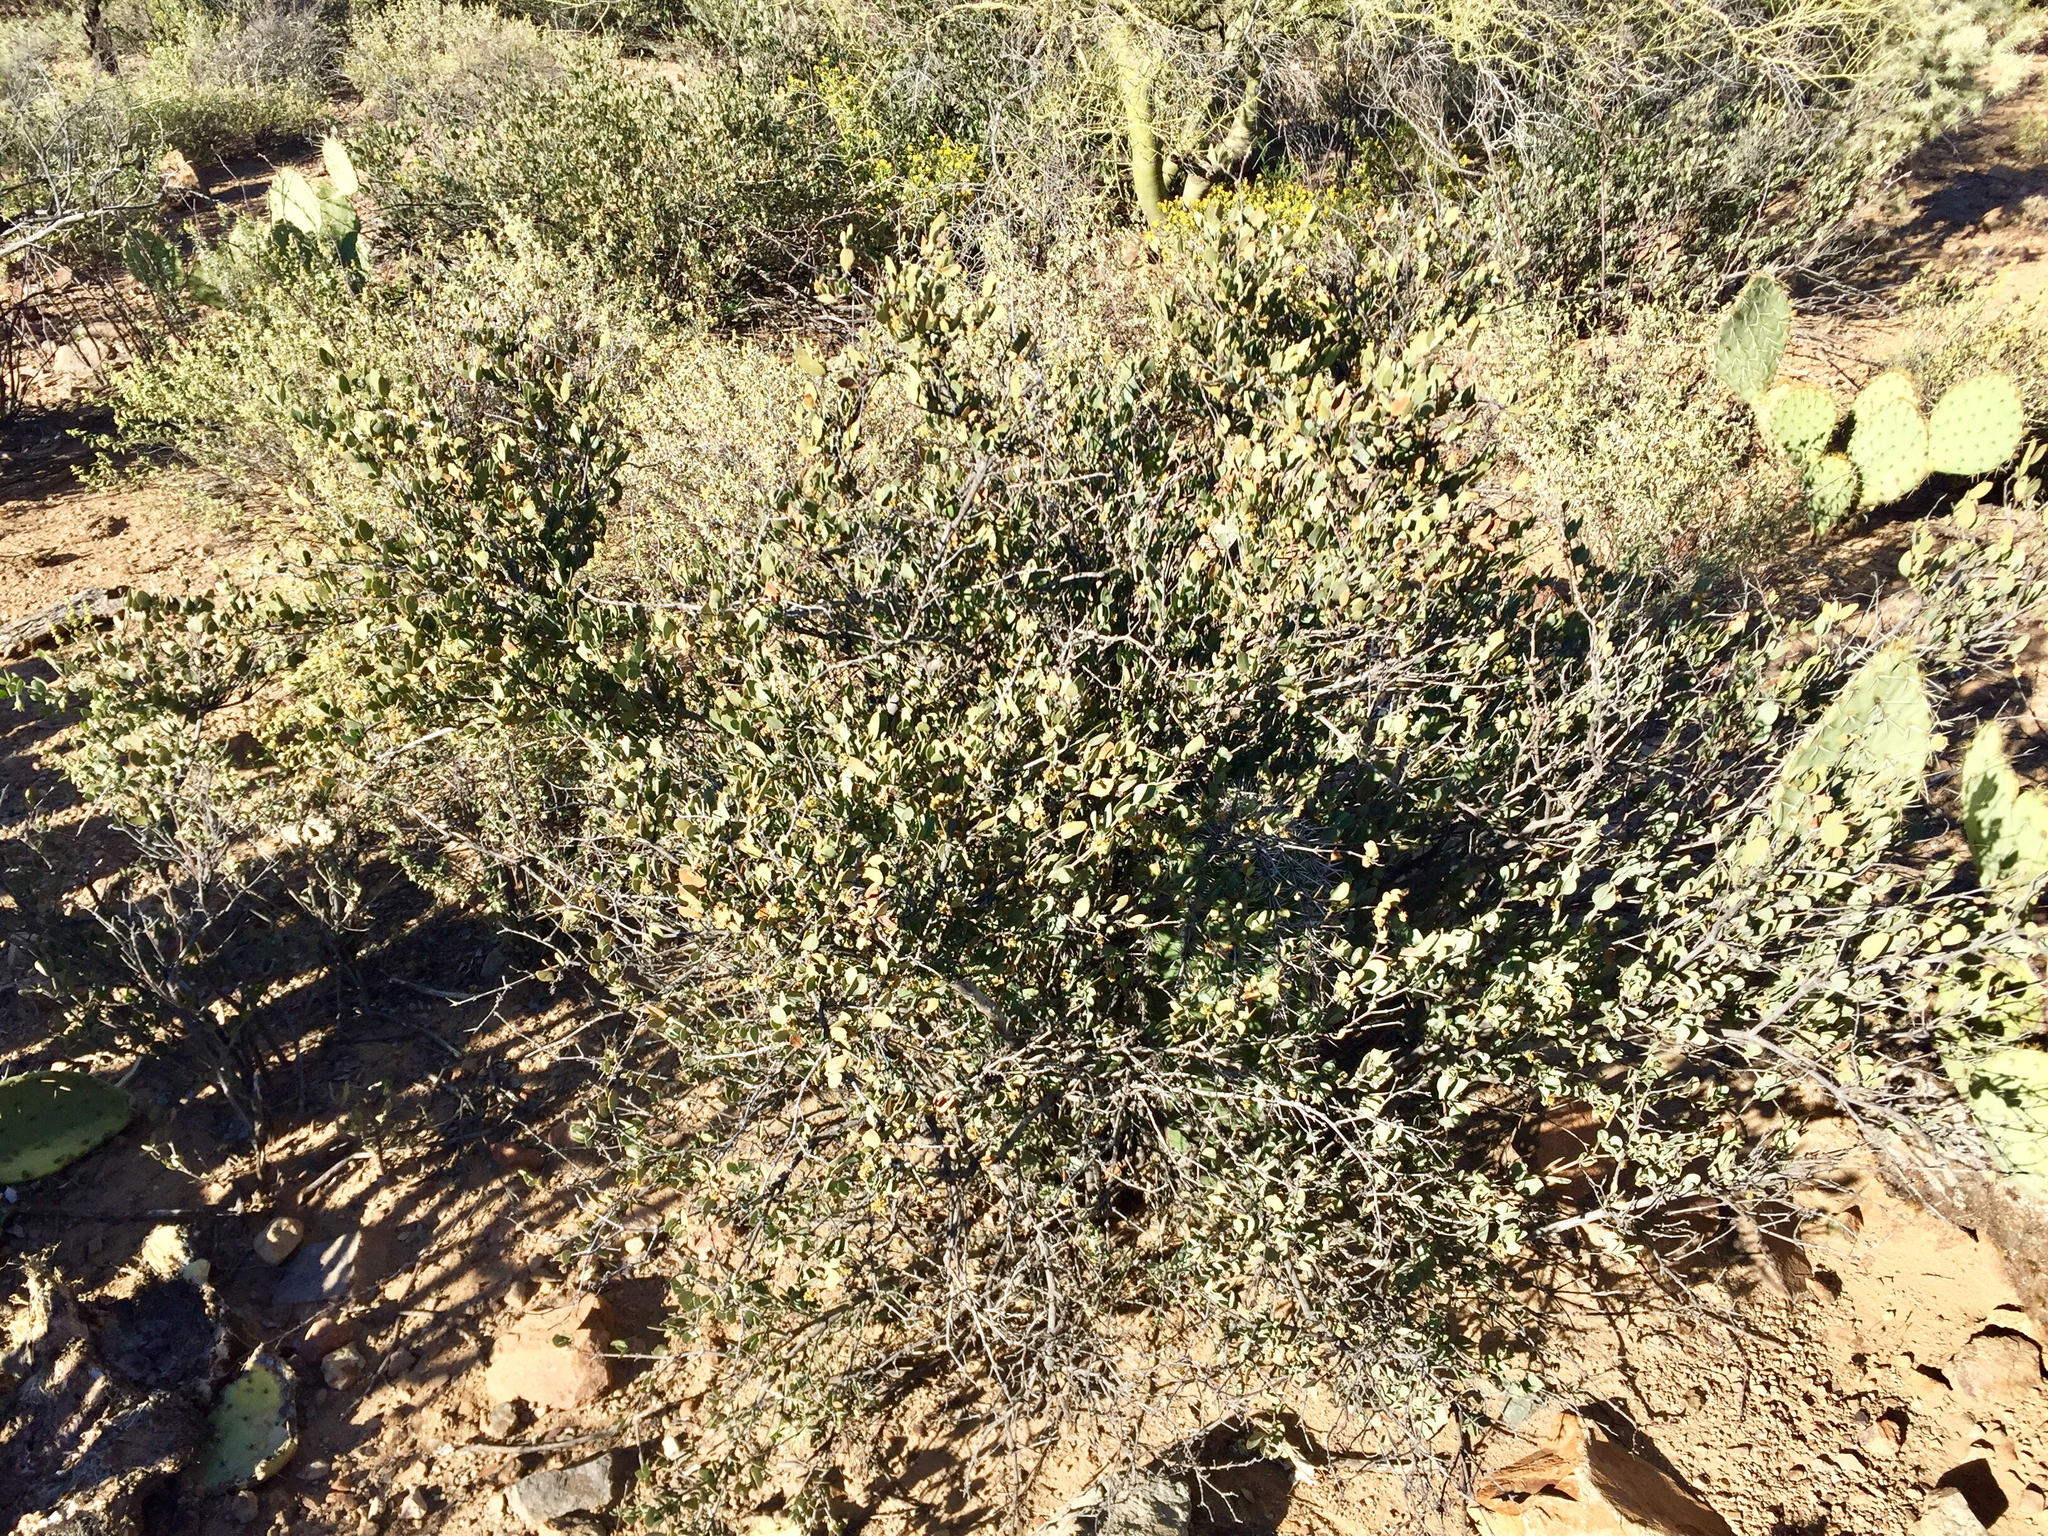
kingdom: Plantae
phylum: Tracheophyta
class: Magnoliopsida
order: Caryophyllales
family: Simmondsiaceae
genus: Simmondsia
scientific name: Simmondsia chinensis
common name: Jojoba
